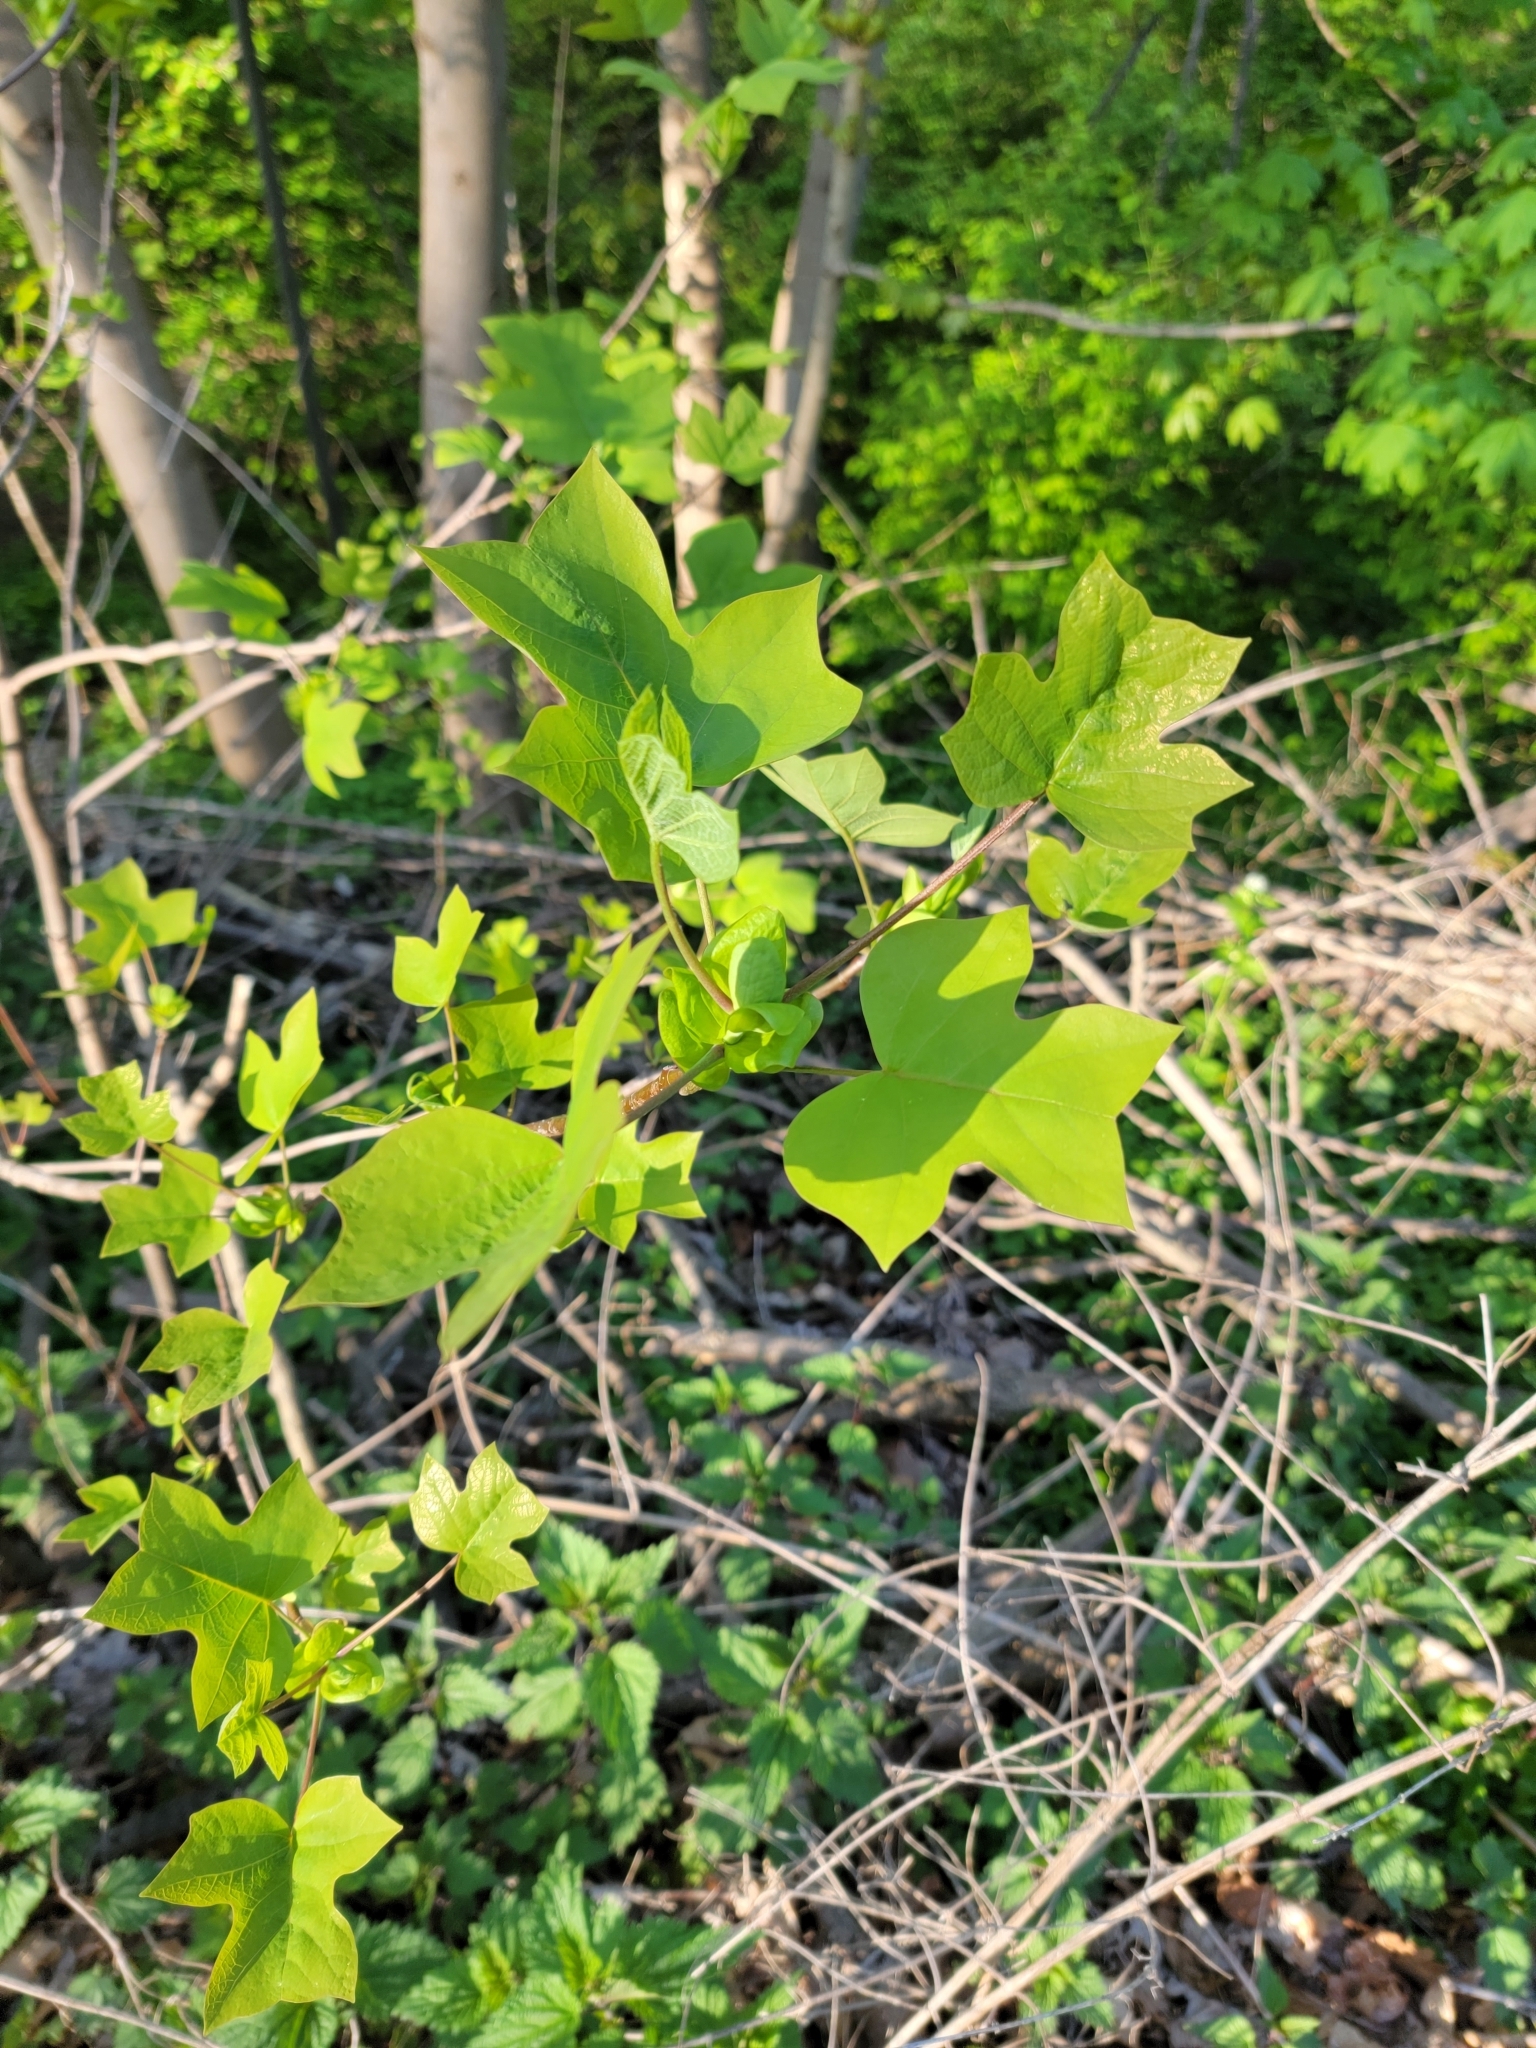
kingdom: Plantae
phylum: Tracheophyta
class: Magnoliopsida
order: Magnoliales
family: Magnoliaceae
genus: Liriodendron
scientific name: Liriodendron tulipifera
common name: Tulip tree
